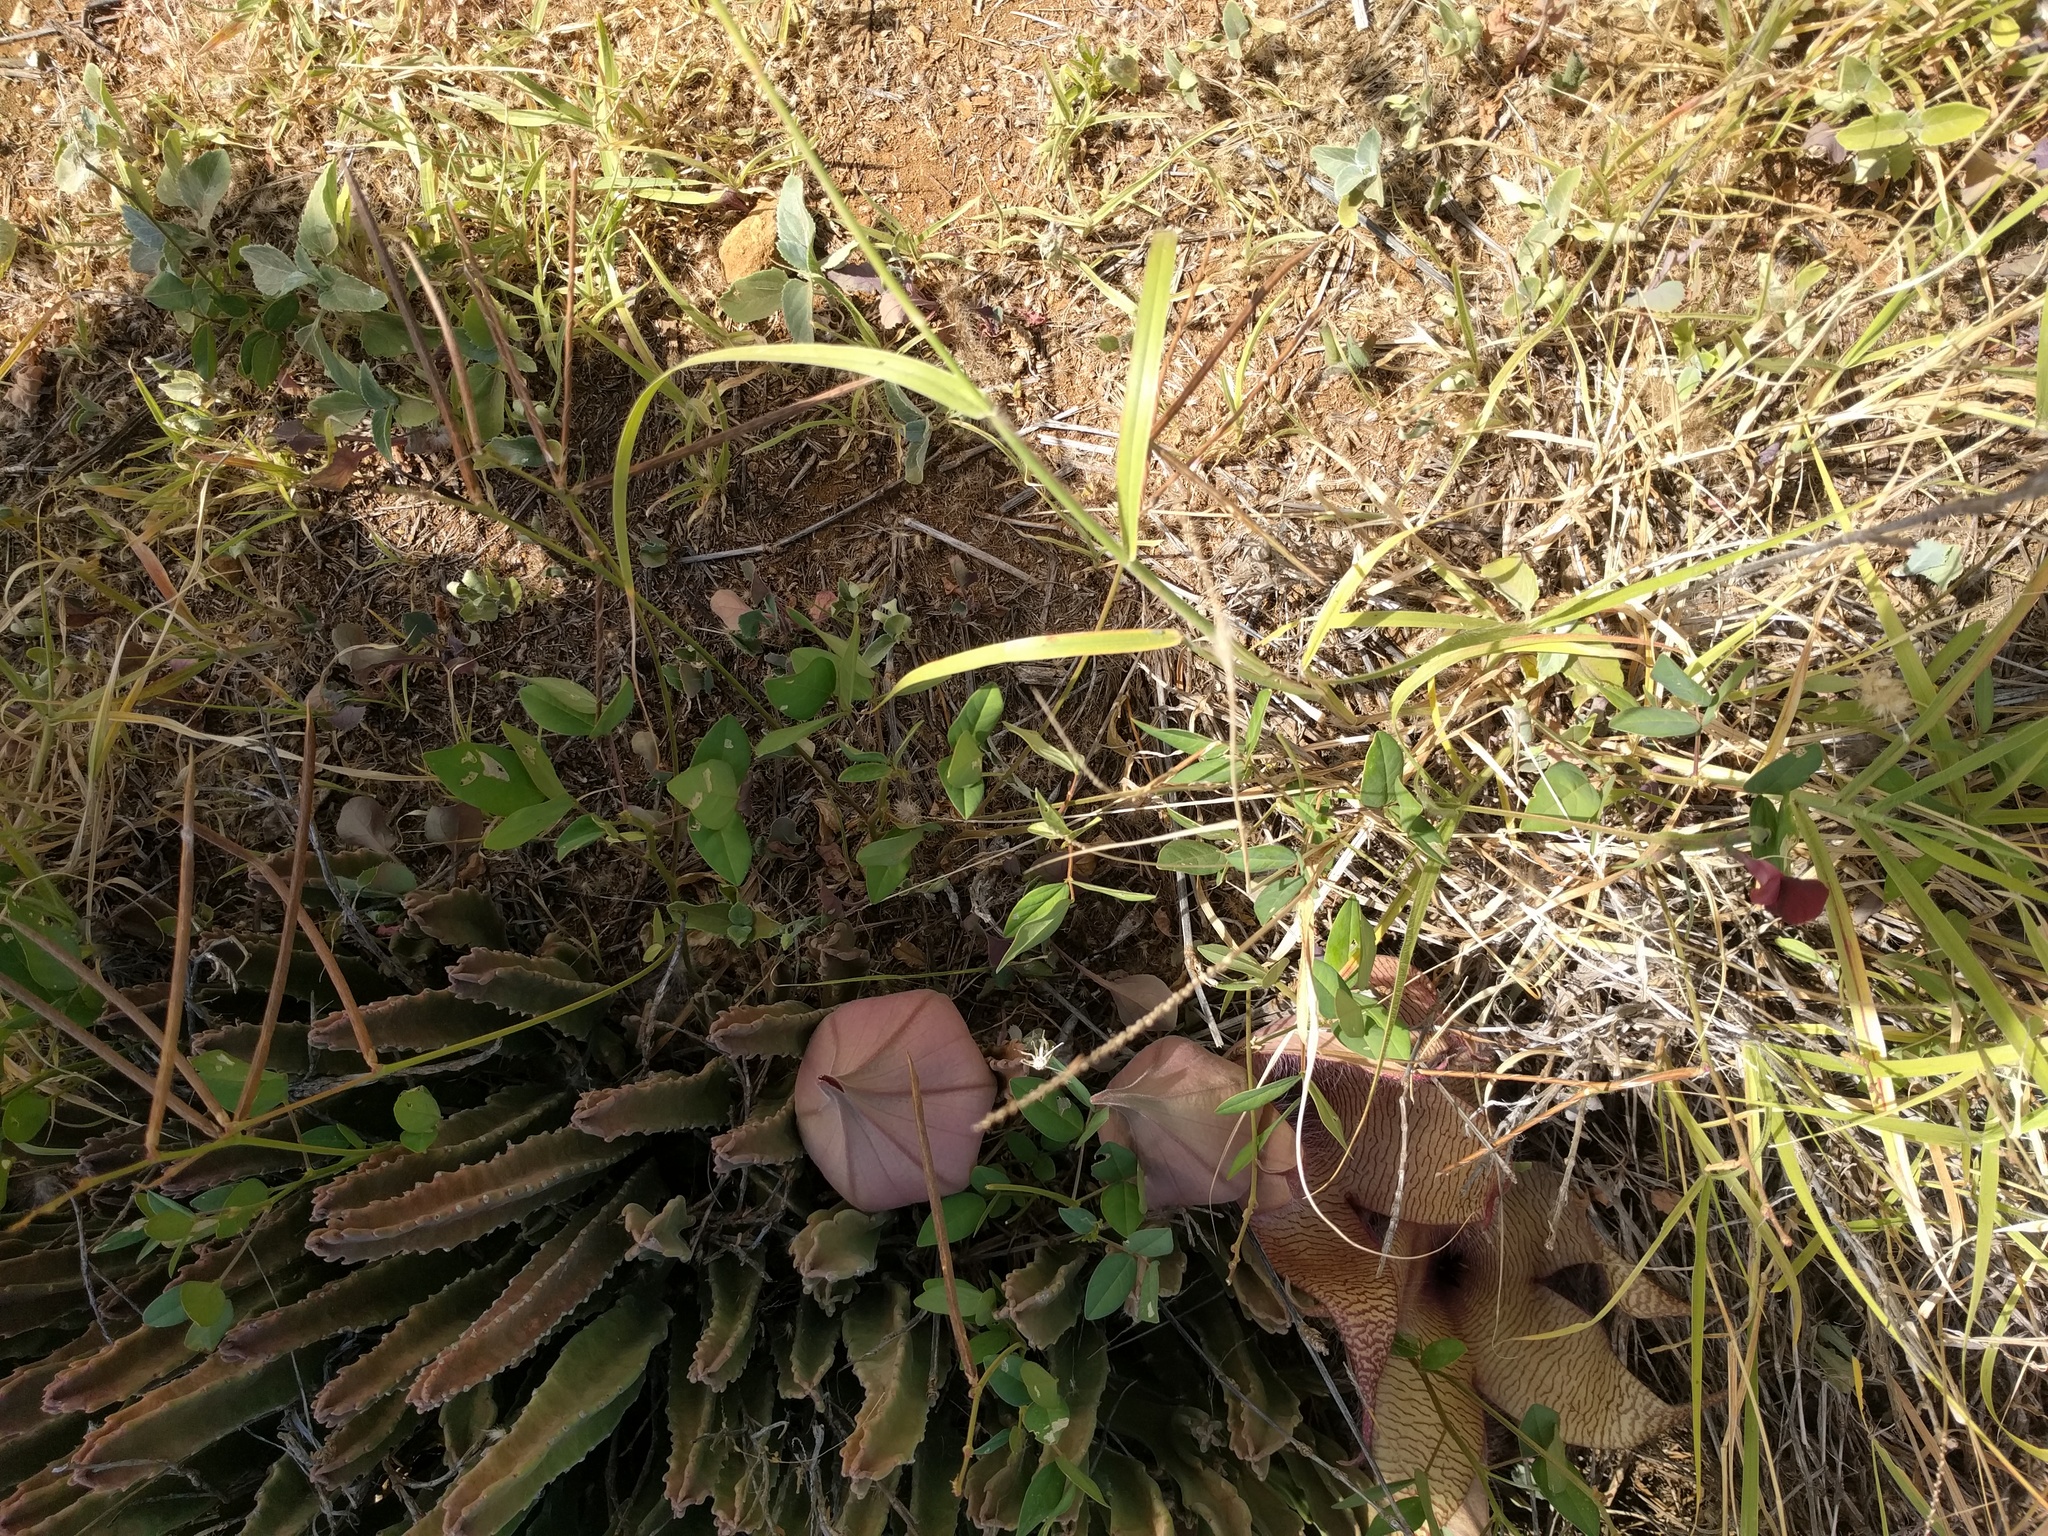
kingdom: Plantae
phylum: Tracheophyta
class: Magnoliopsida
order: Gentianales
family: Apocynaceae
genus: Ceropegia
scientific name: Ceropegia gigantea
